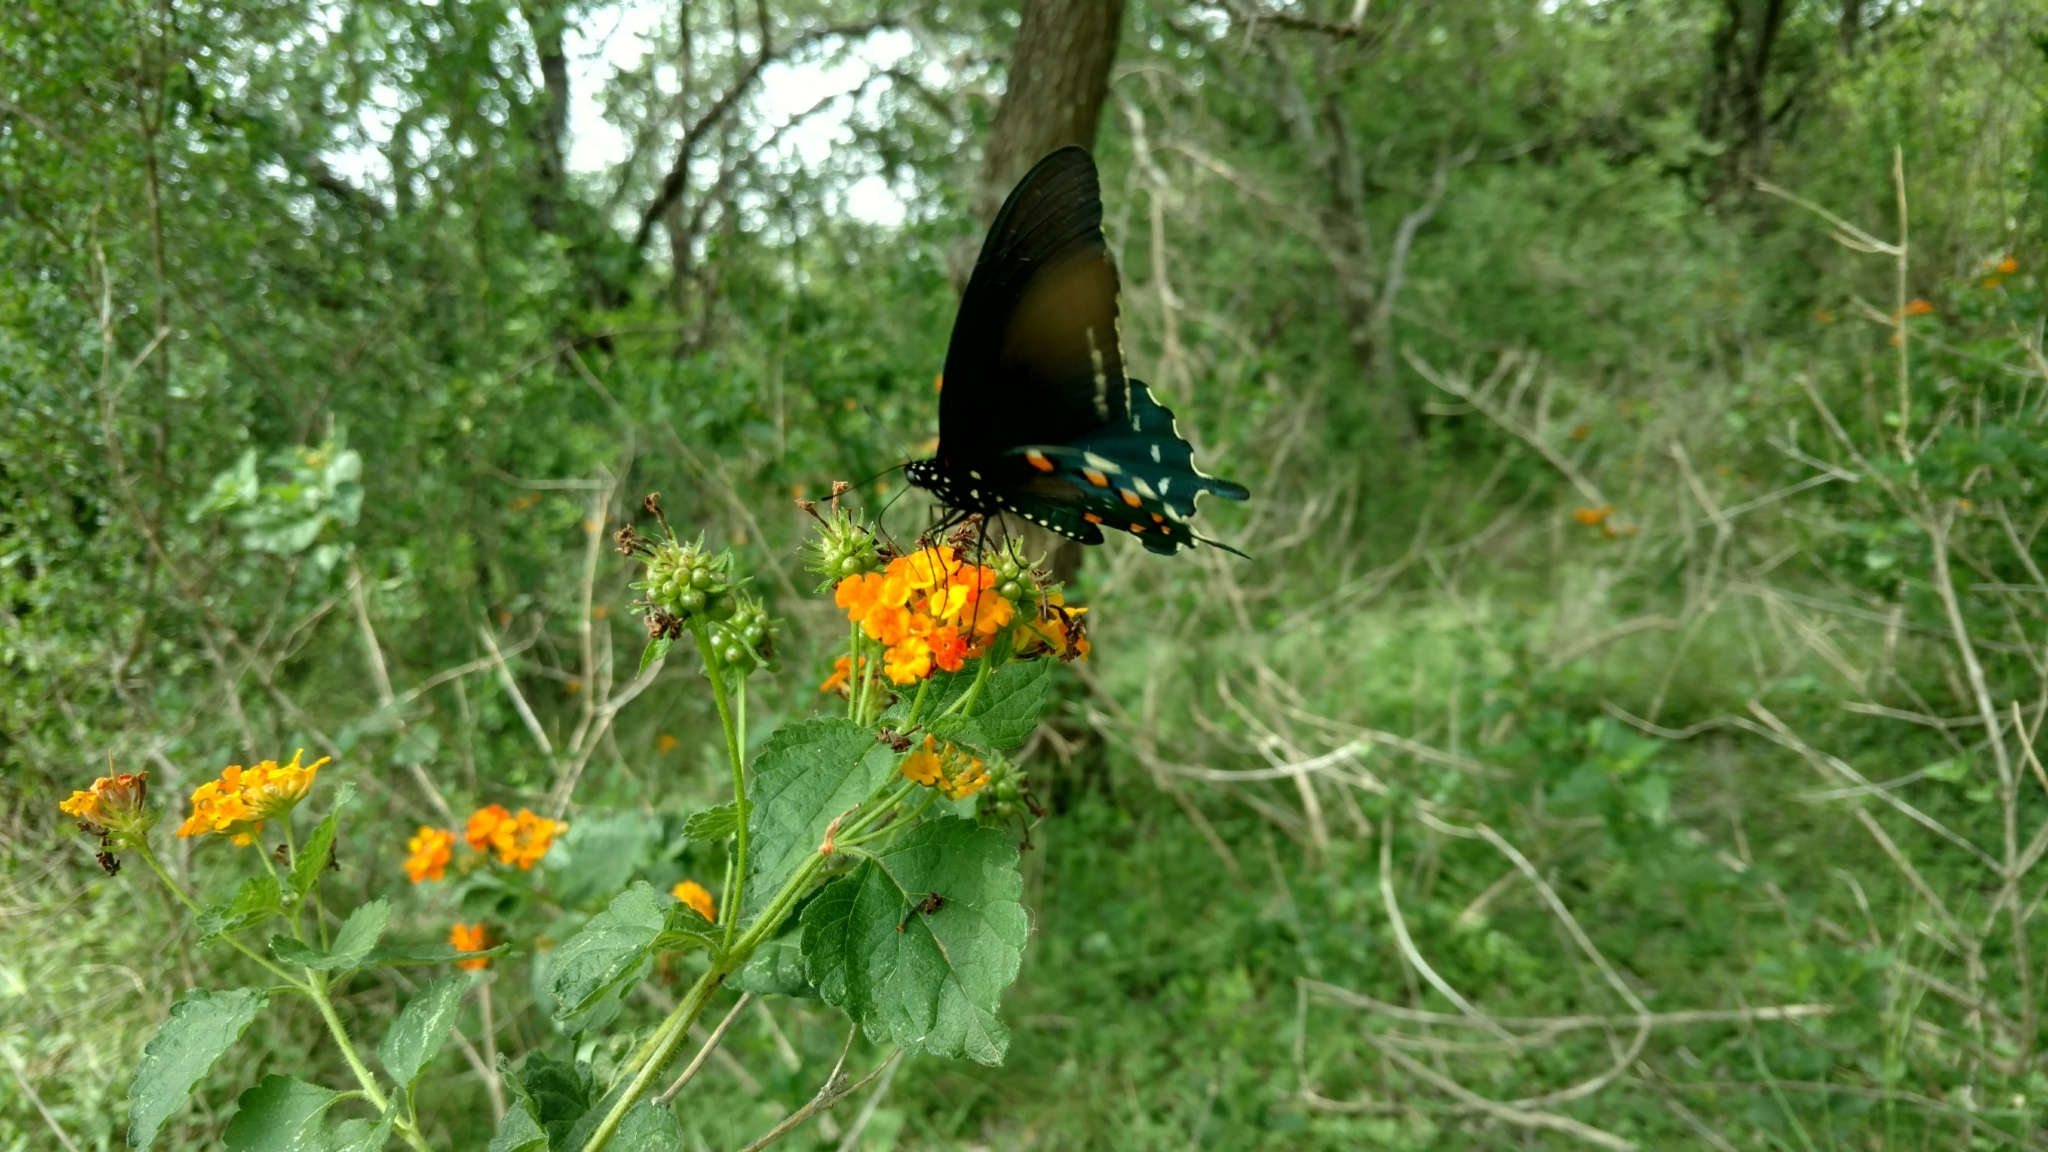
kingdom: Animalia
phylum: Arthropoda
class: Insecta
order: Lepidoptera
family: Papilionidae
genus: Battus
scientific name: Battus philenor
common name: Pipevine swallowtail
